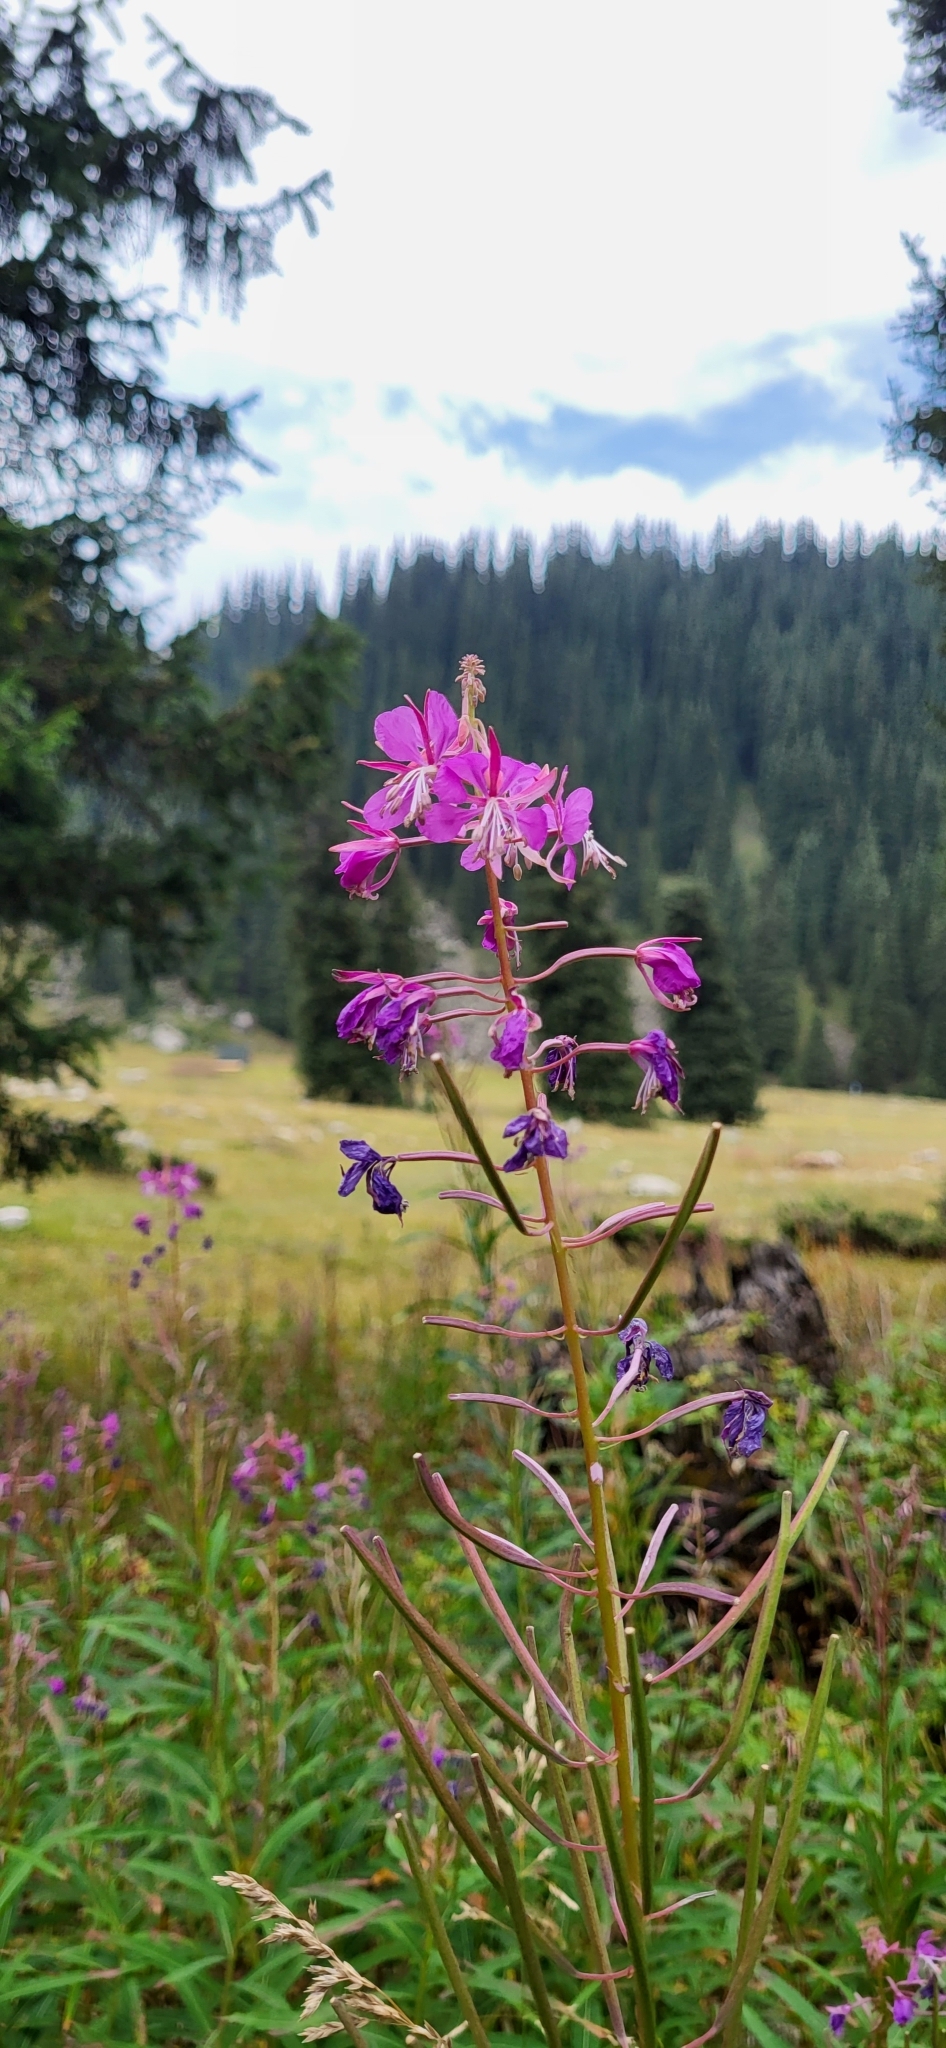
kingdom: Plantae
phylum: Tracheophyta
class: Magnoliopsida
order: Myrtales
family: Onagraceae
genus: Chamaenerion
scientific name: Chamaenerion angustifolium
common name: Fireweed
